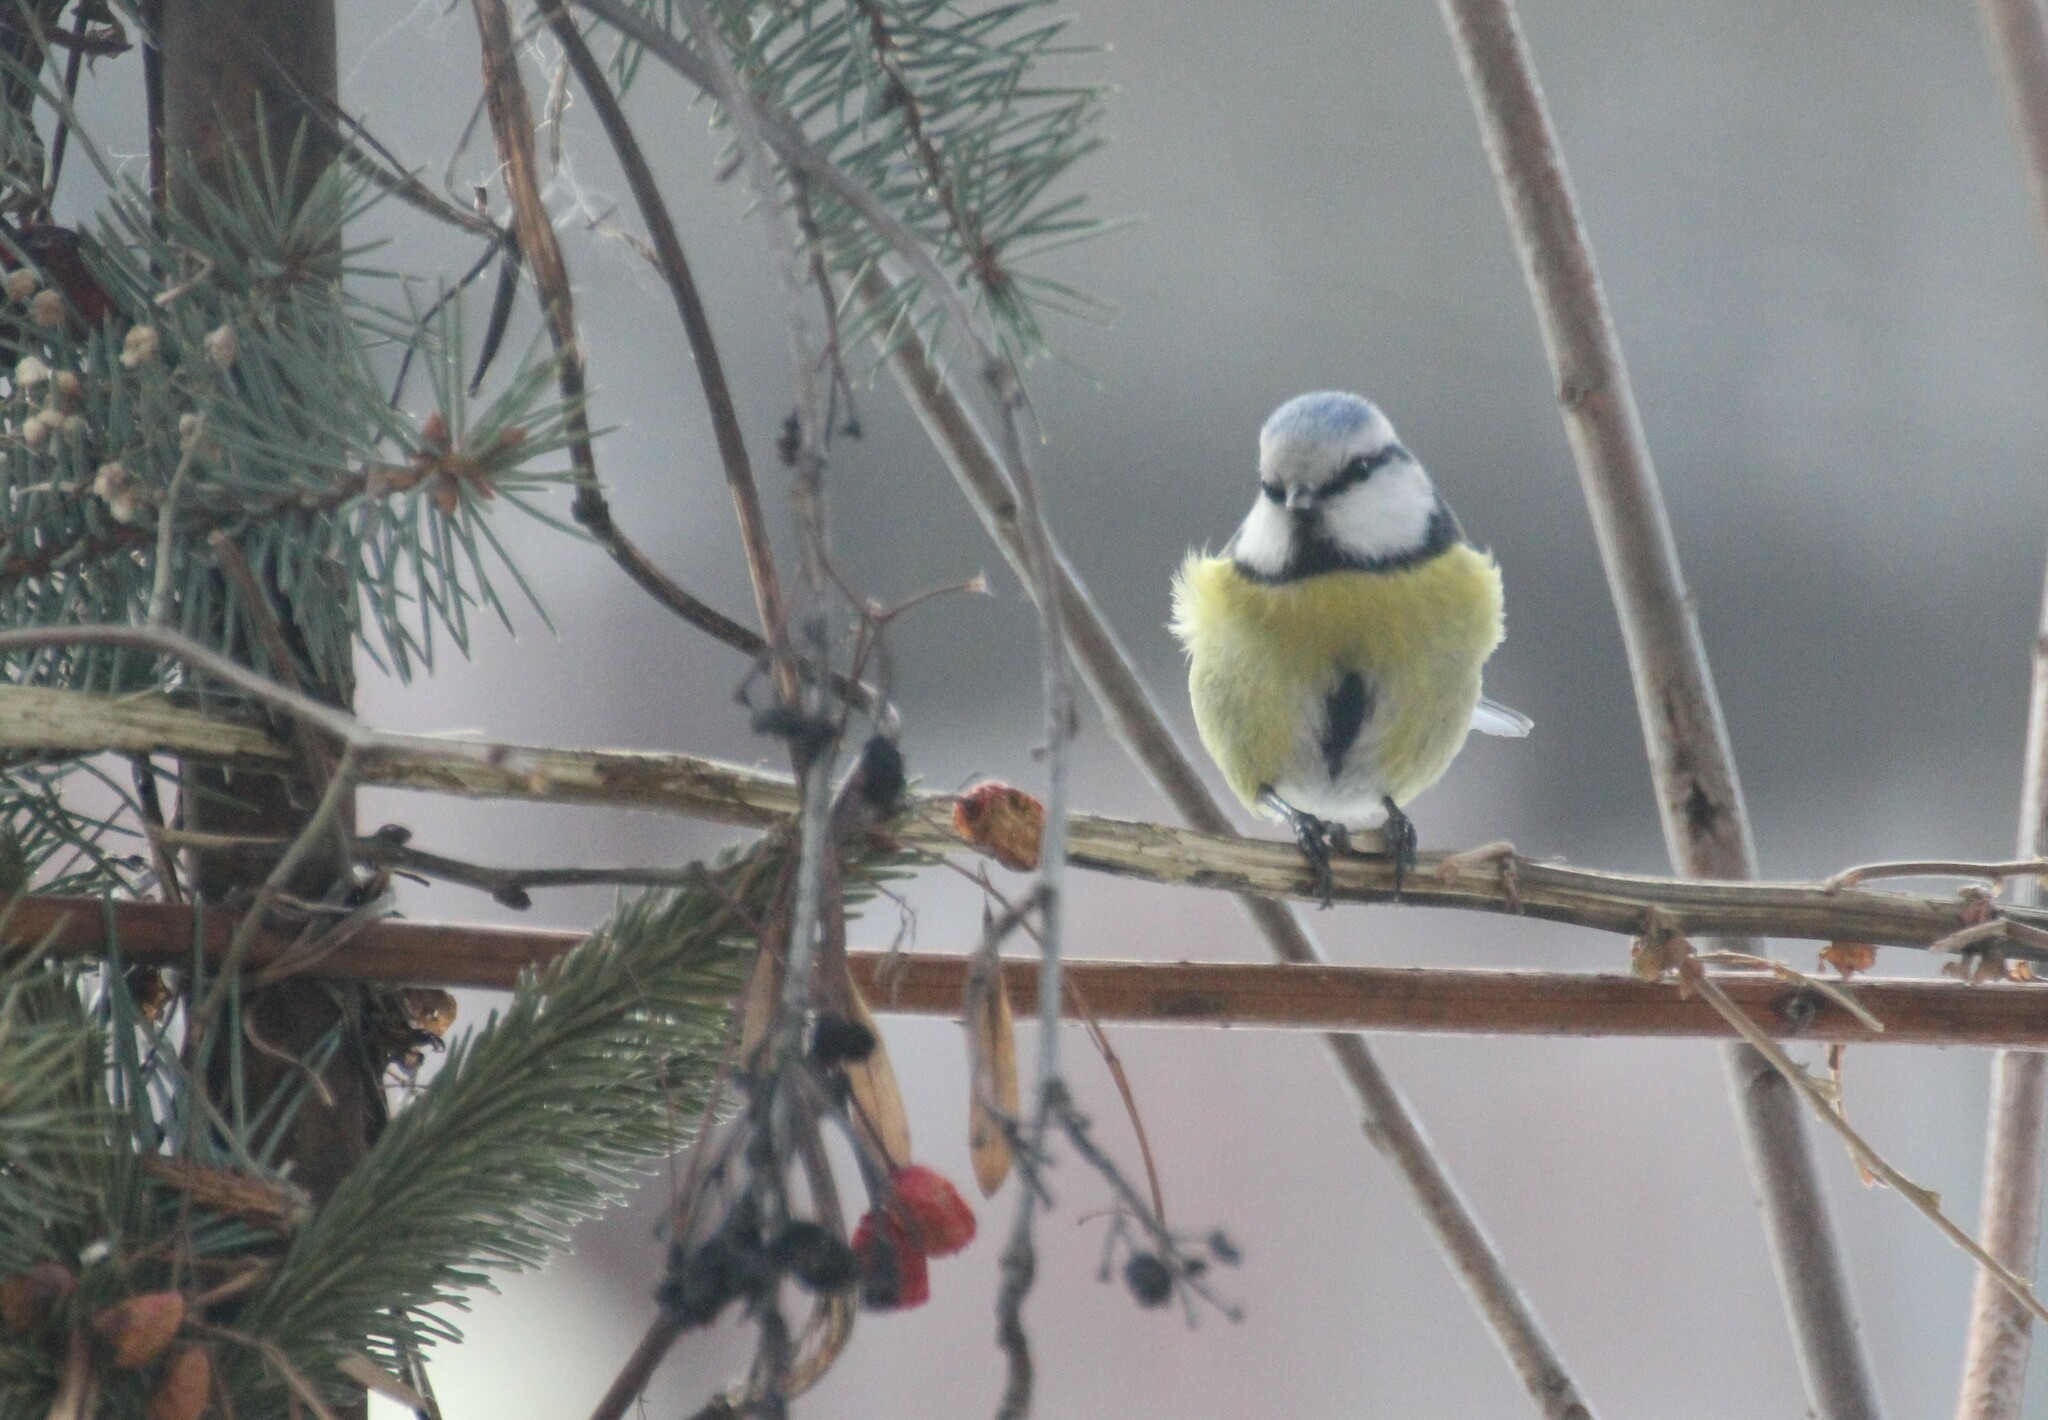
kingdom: Animalia
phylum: Chordata
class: Aves
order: Passeriformes
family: Paridae
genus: Cyanistes
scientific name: Cyanistes caeruleus
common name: Eurasian blue tit
